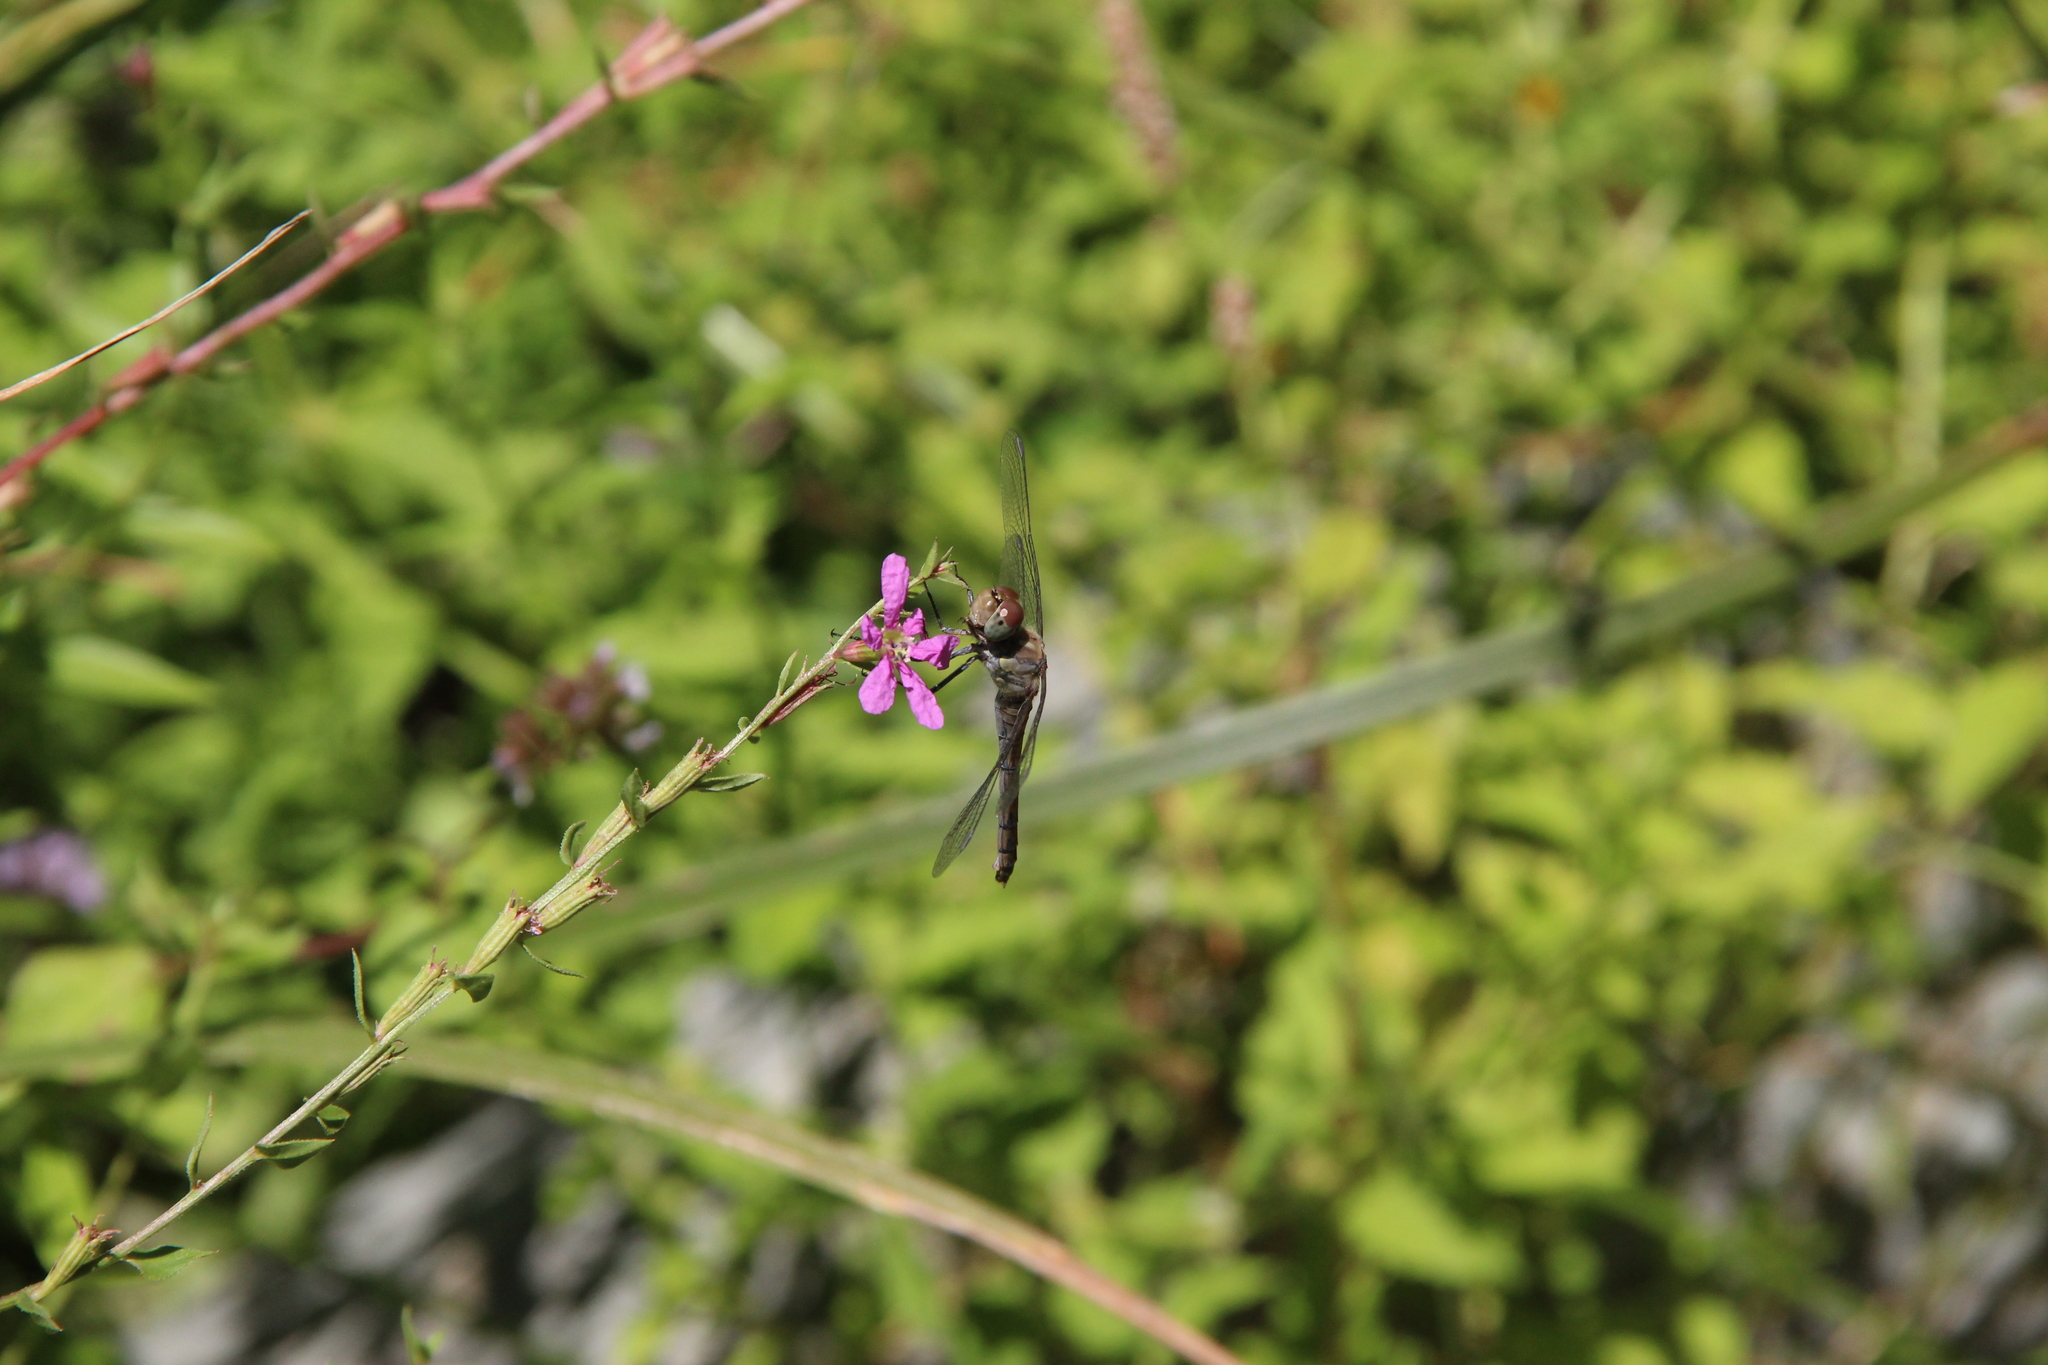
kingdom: Animalia
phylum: Arthropoda
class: Insecta
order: Odonata
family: Libellulidae
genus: Sympetrum
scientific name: Sympetrum striolatum
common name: Common darter
